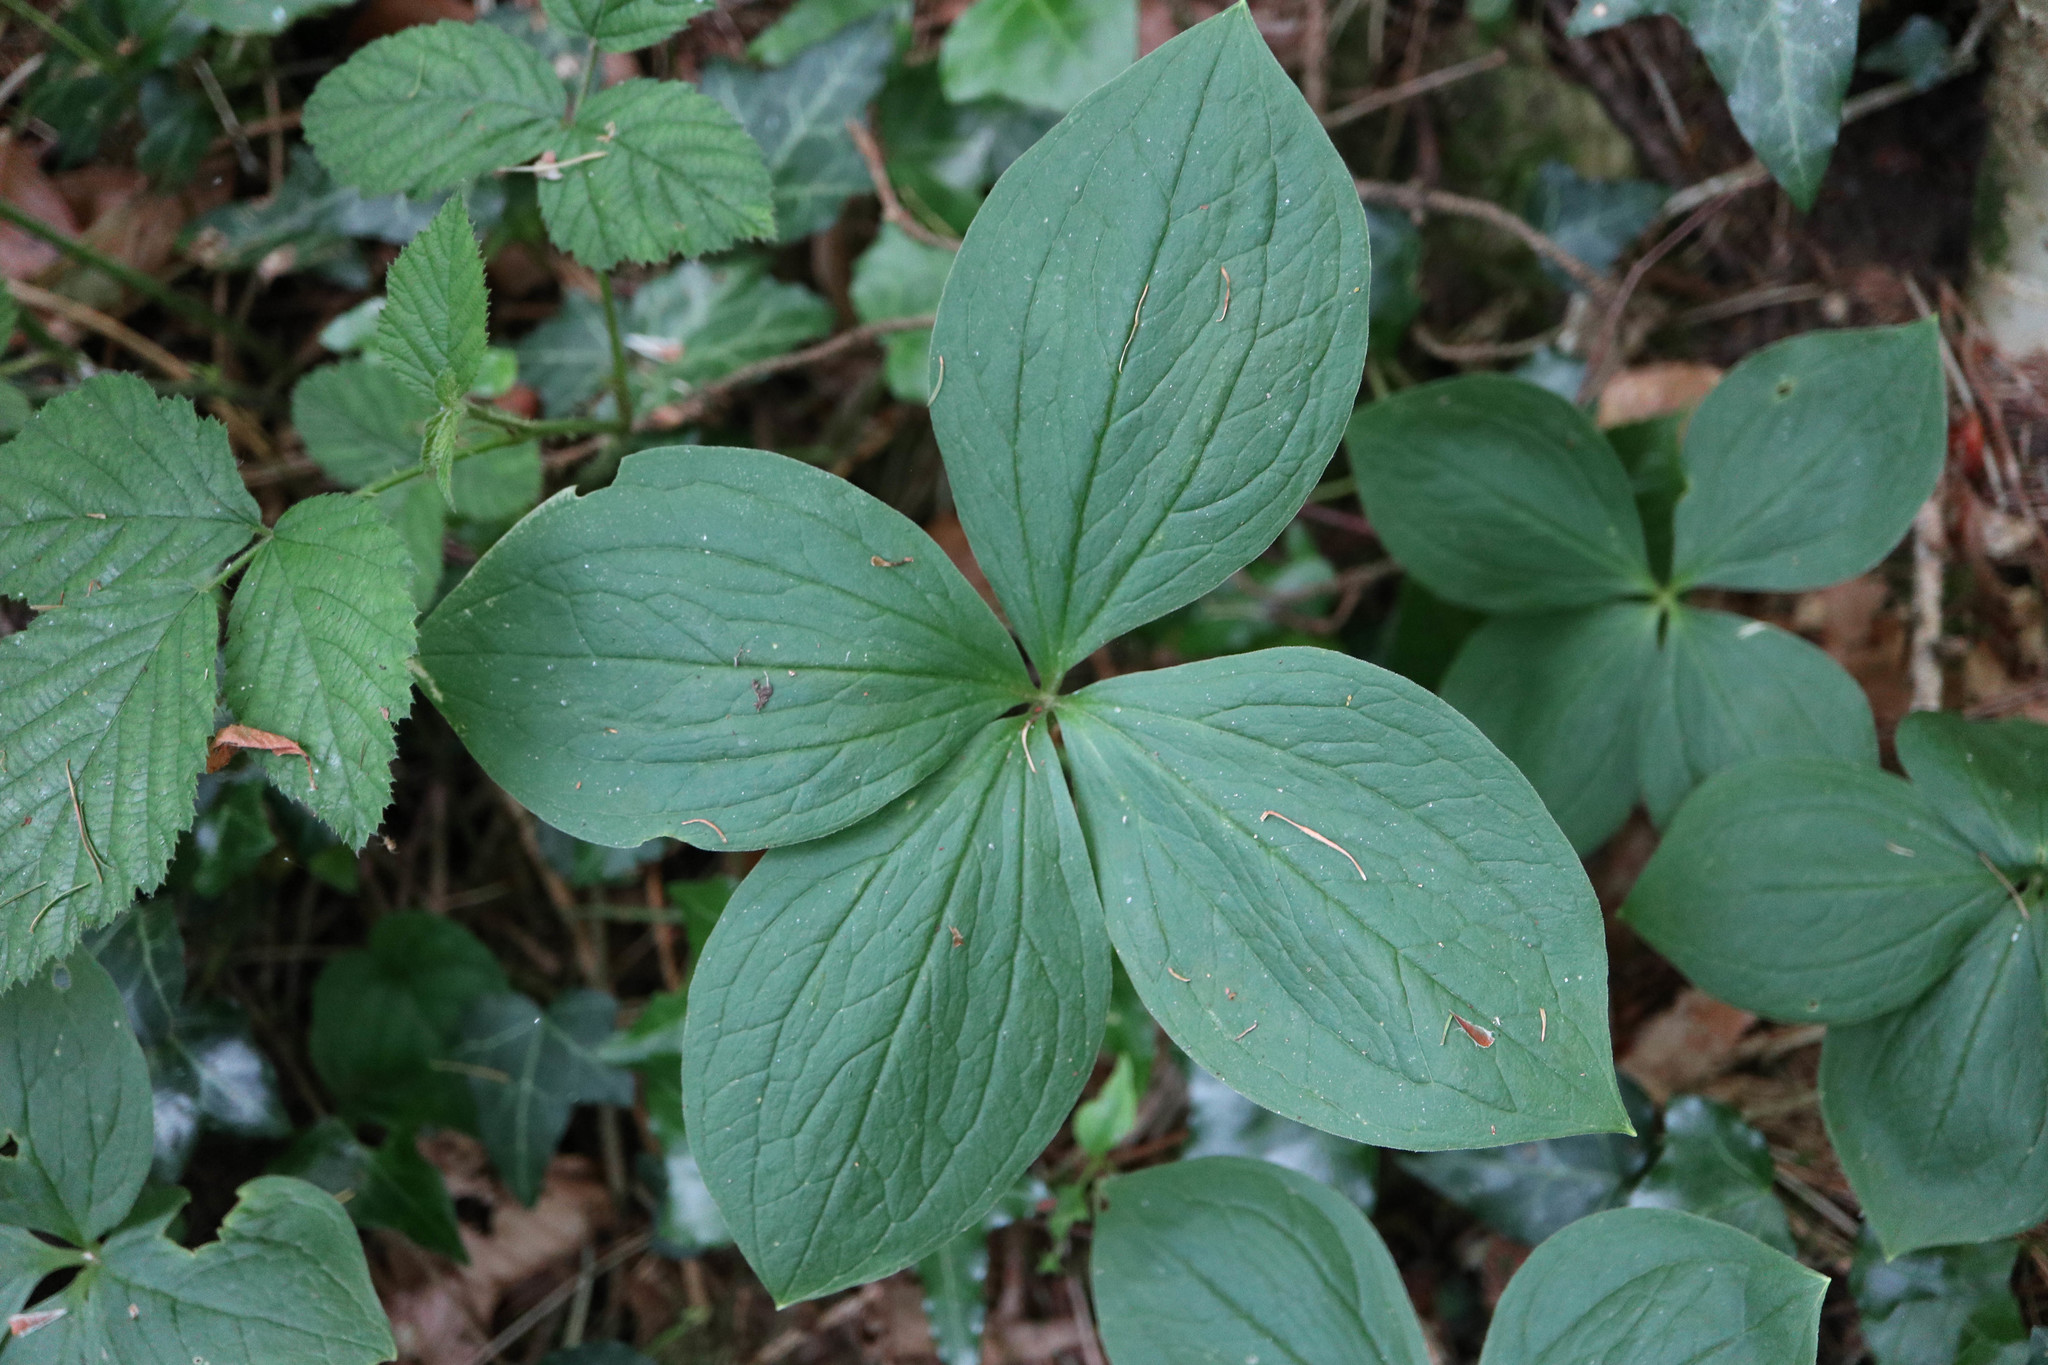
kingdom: Plantae
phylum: Tracheophyta
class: Liliopsida
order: Liliales
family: Melanthiaceae
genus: Paris
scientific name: Paris quadrifolia
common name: Herb-paris
